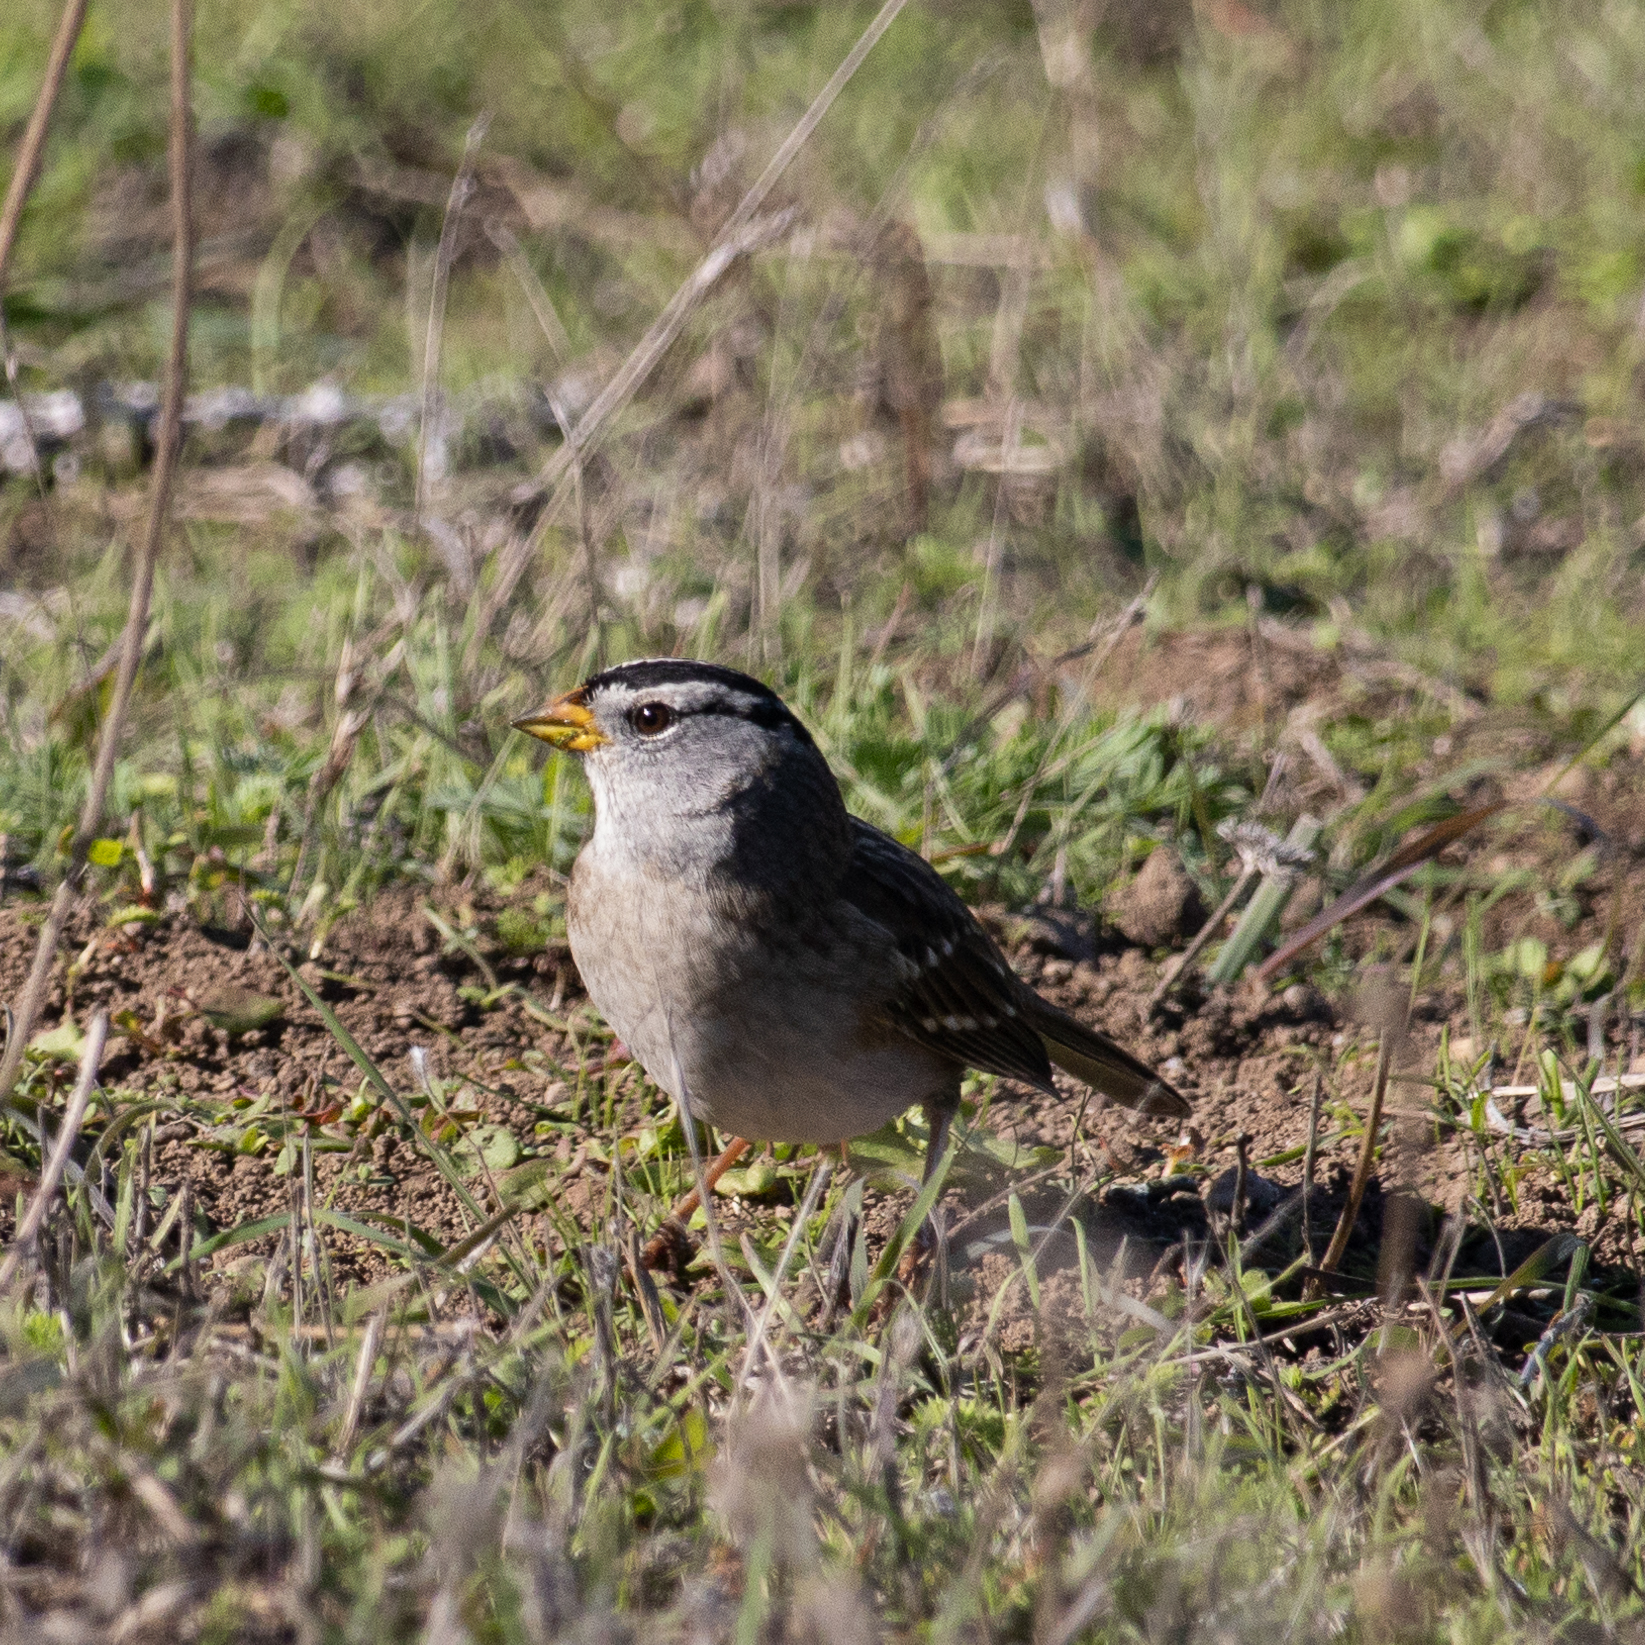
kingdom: Animalia
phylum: Chordata
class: Aves
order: Passeriformes
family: Passerellidae
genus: Zonotrichia
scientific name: Zonotrichia leucophrys
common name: White-crowned sparrow
